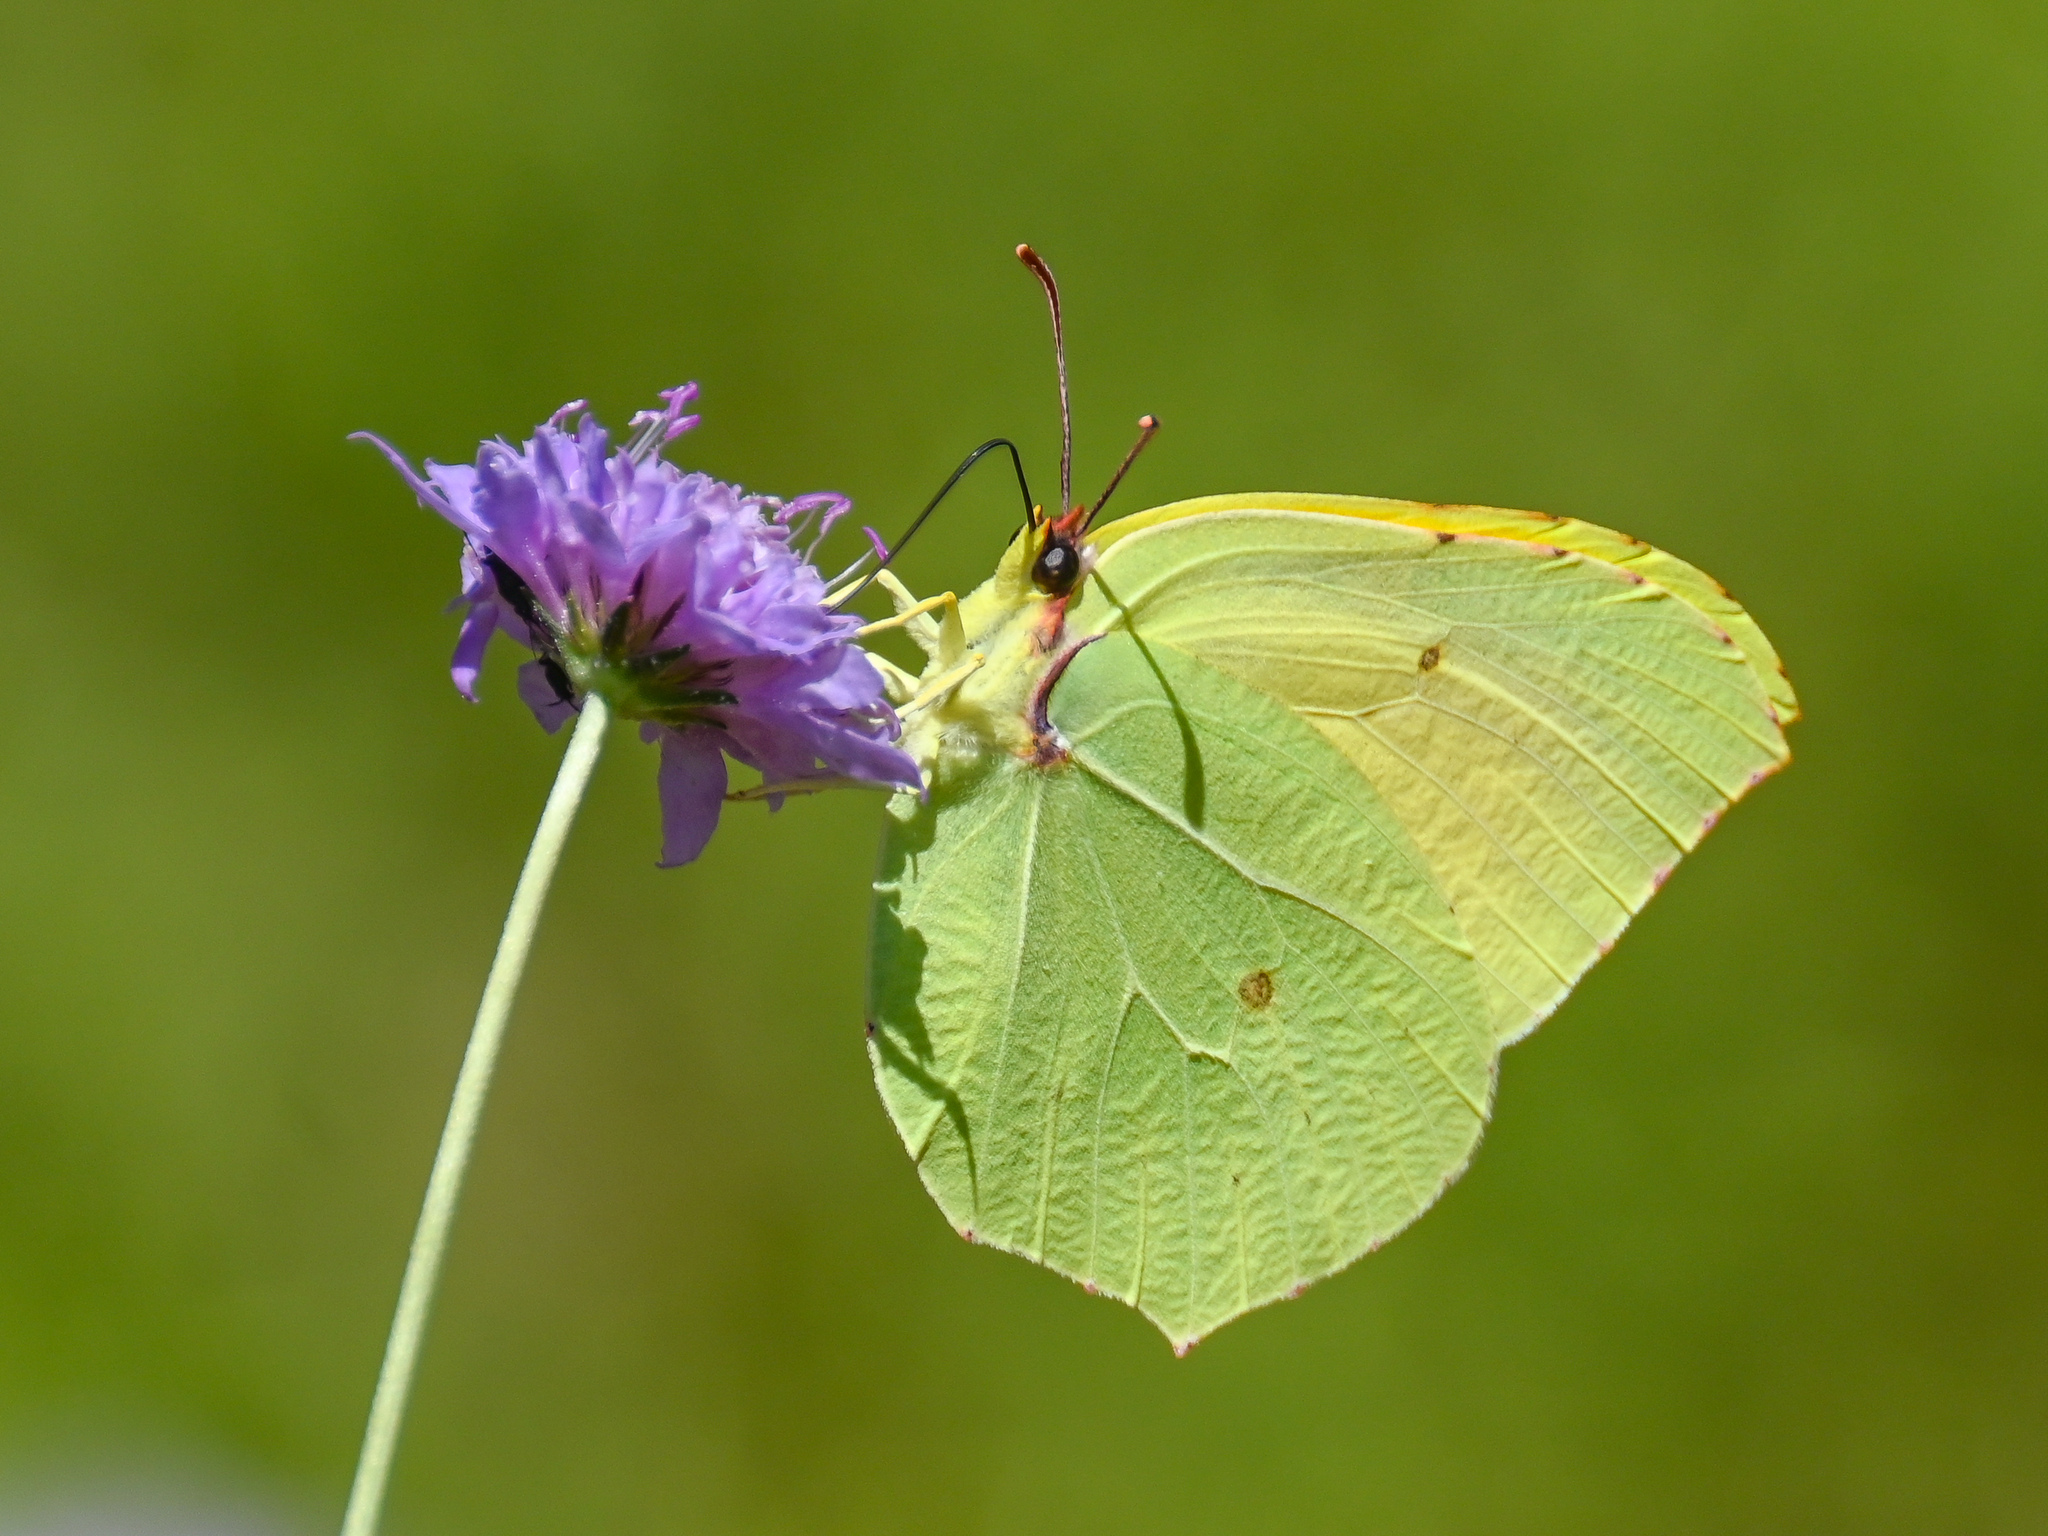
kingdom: Animalia
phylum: Arthropoda
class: Insecta
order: Lepidoptera
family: Pieridae
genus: Gonepteryx
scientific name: Gonepteryx cleopatra
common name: Cleopatra
